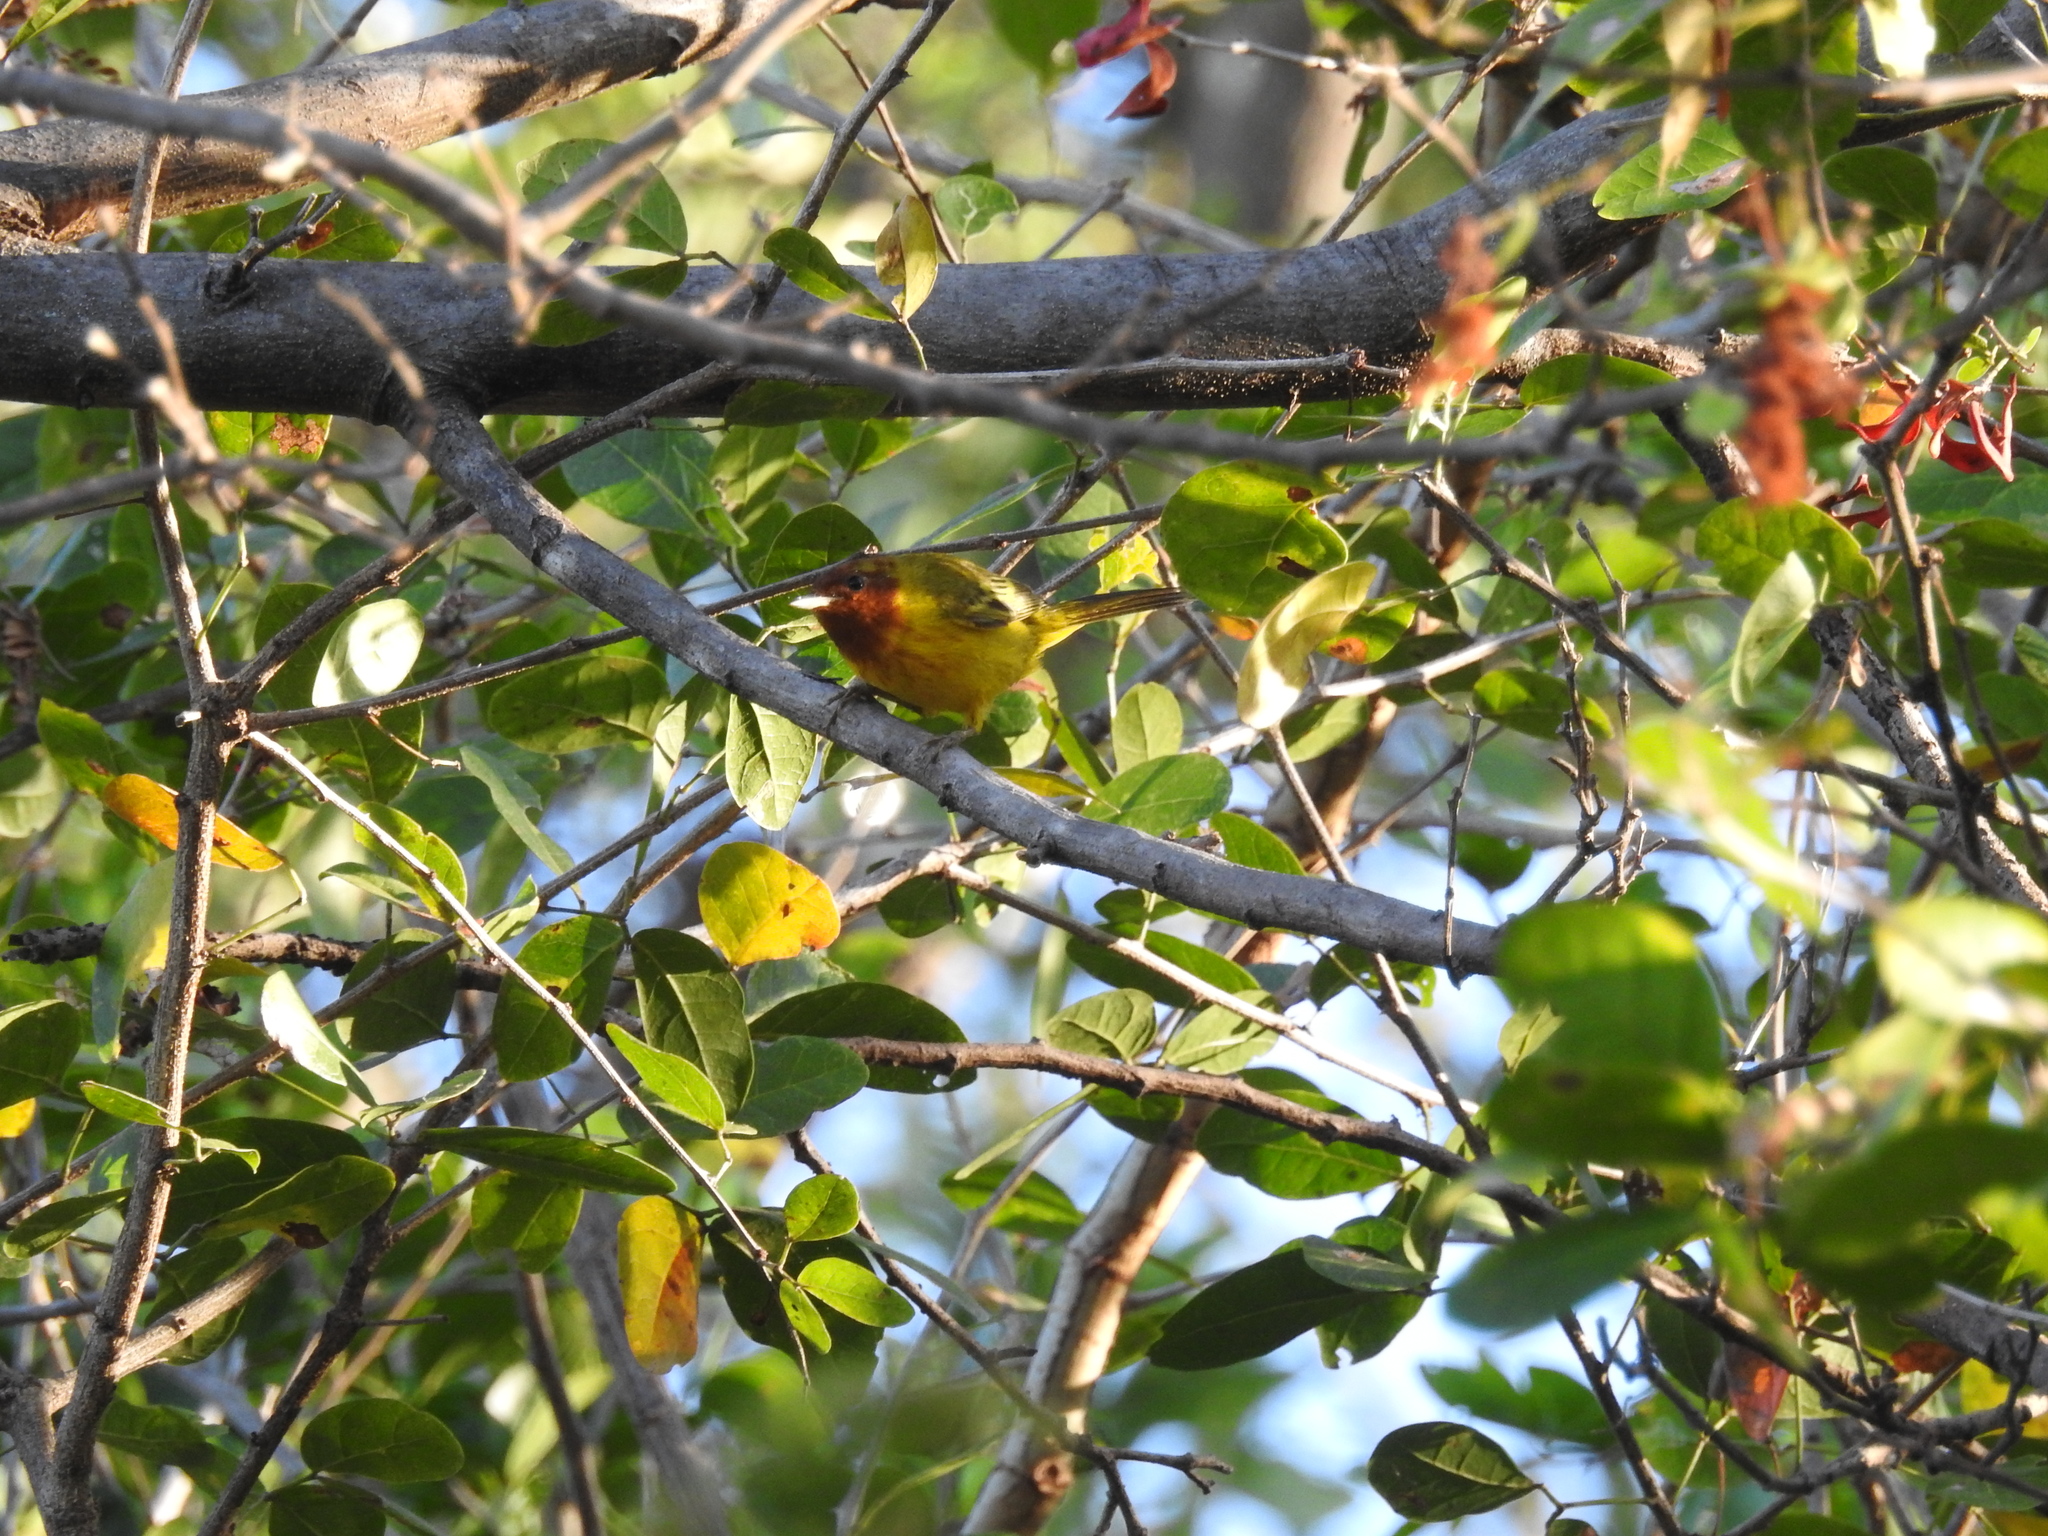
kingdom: Animalia
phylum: Chordata
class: Aves
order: Passeriformes
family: Parulidae
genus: Setophaga
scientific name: Setophaga petechia
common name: Yellow warbler
